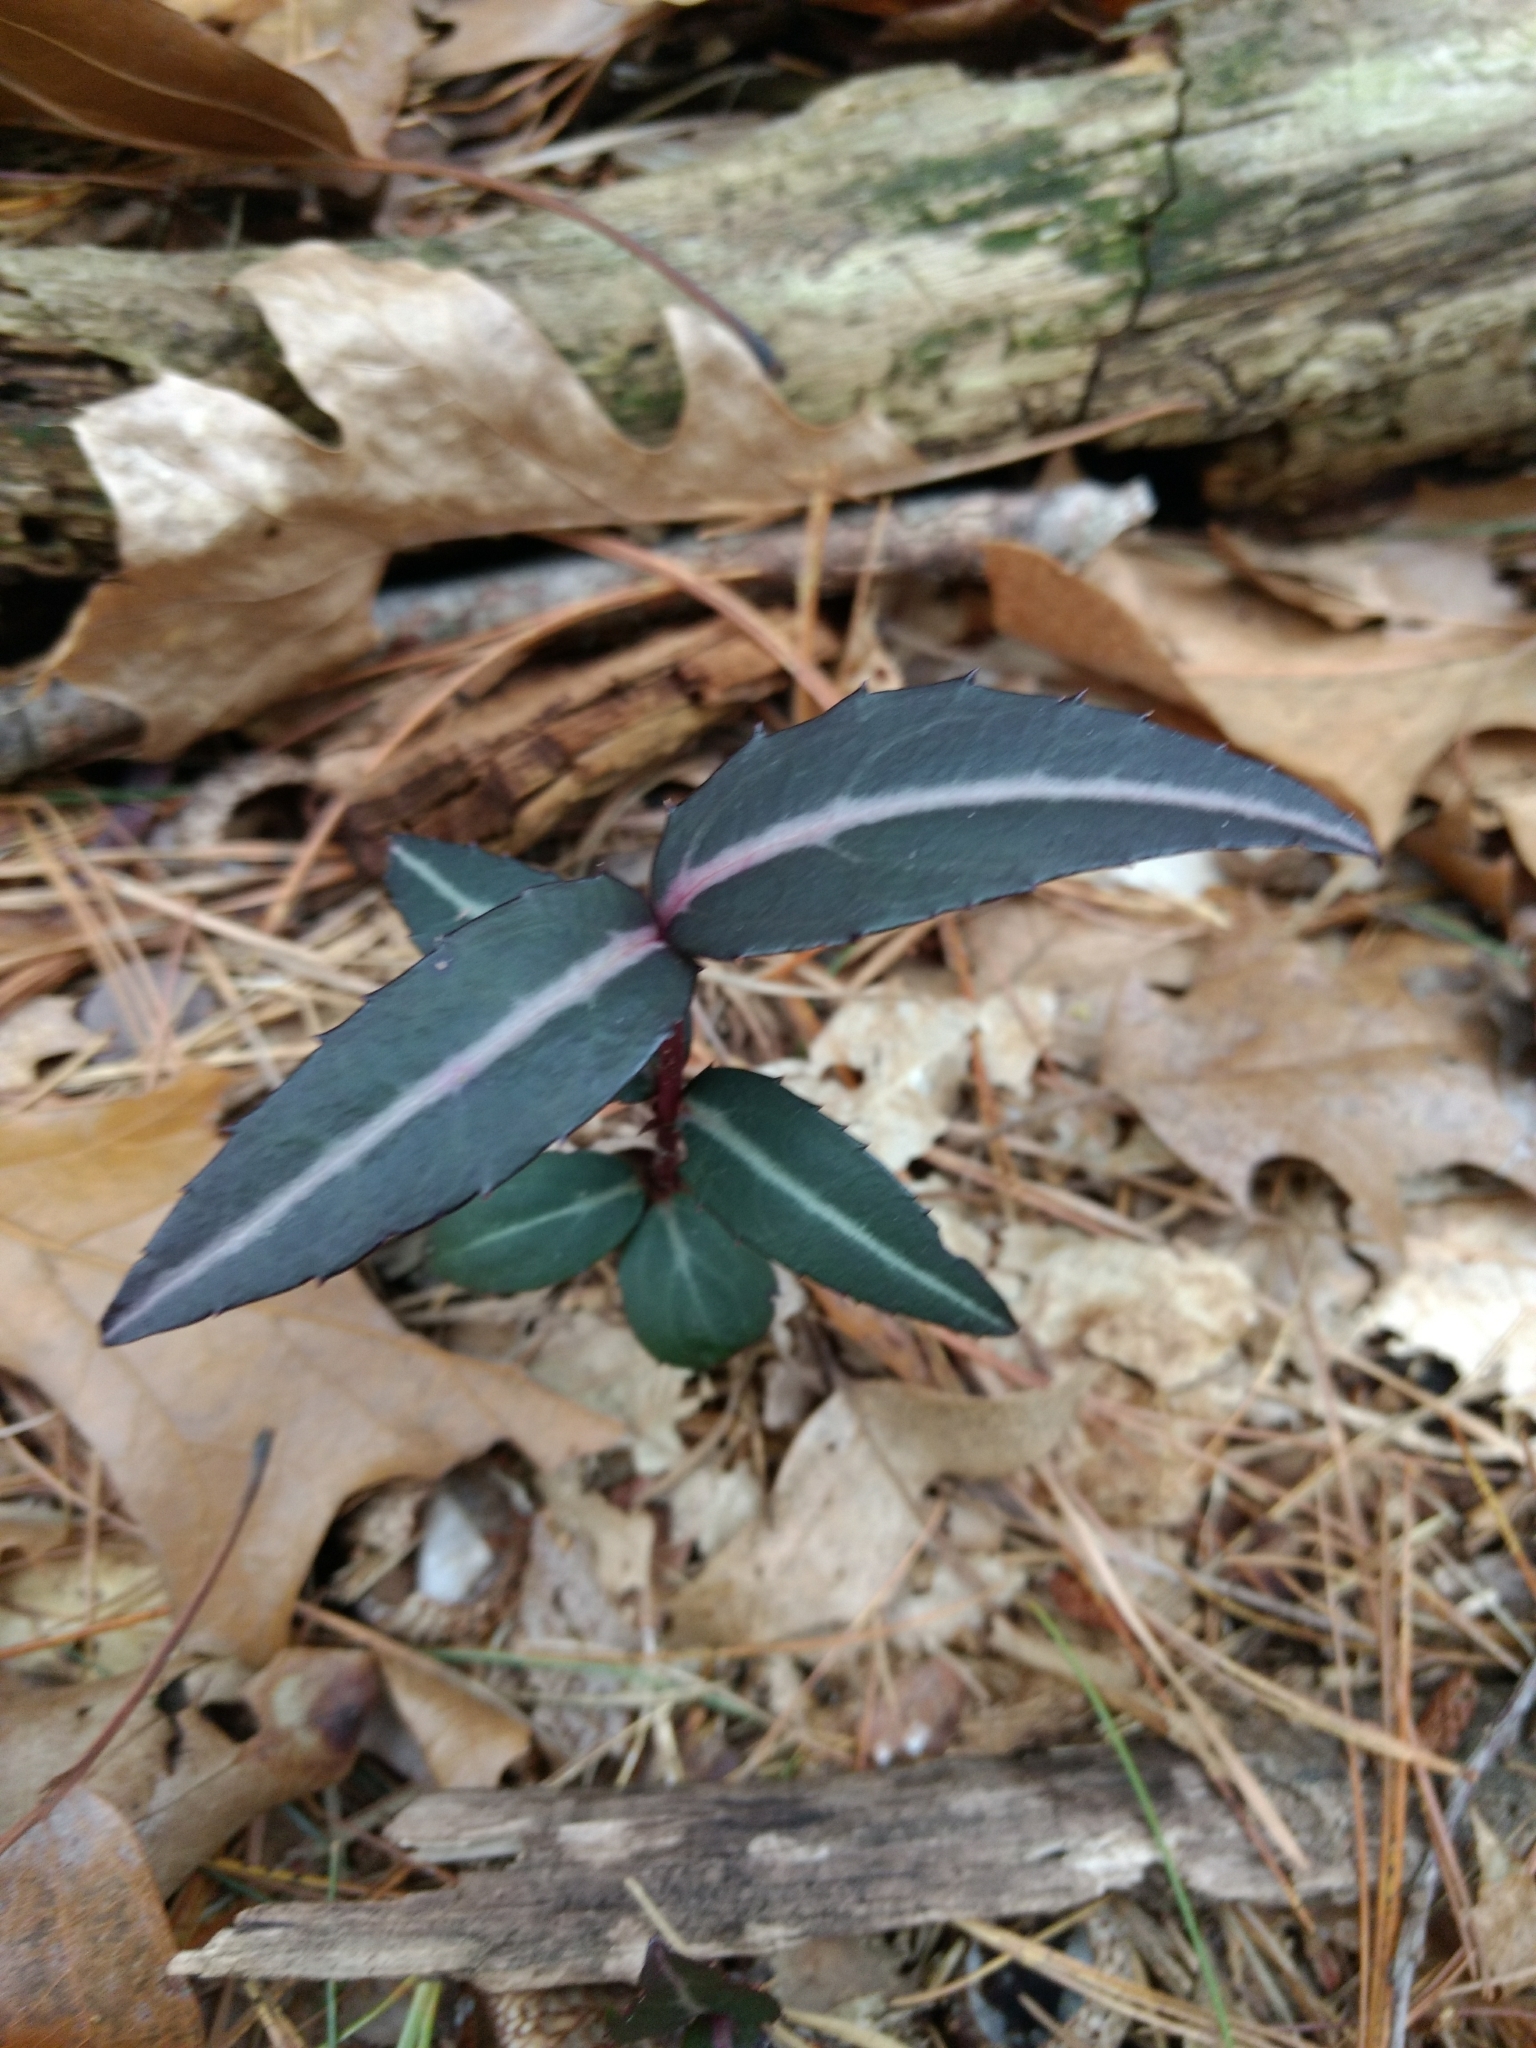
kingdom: Plantae
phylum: Tracheophyta
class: Magnoliopsida
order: Ericales
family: Ericaceae
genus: Chimaphila
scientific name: Chimaphila maculata
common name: Spotted pipsissewa
